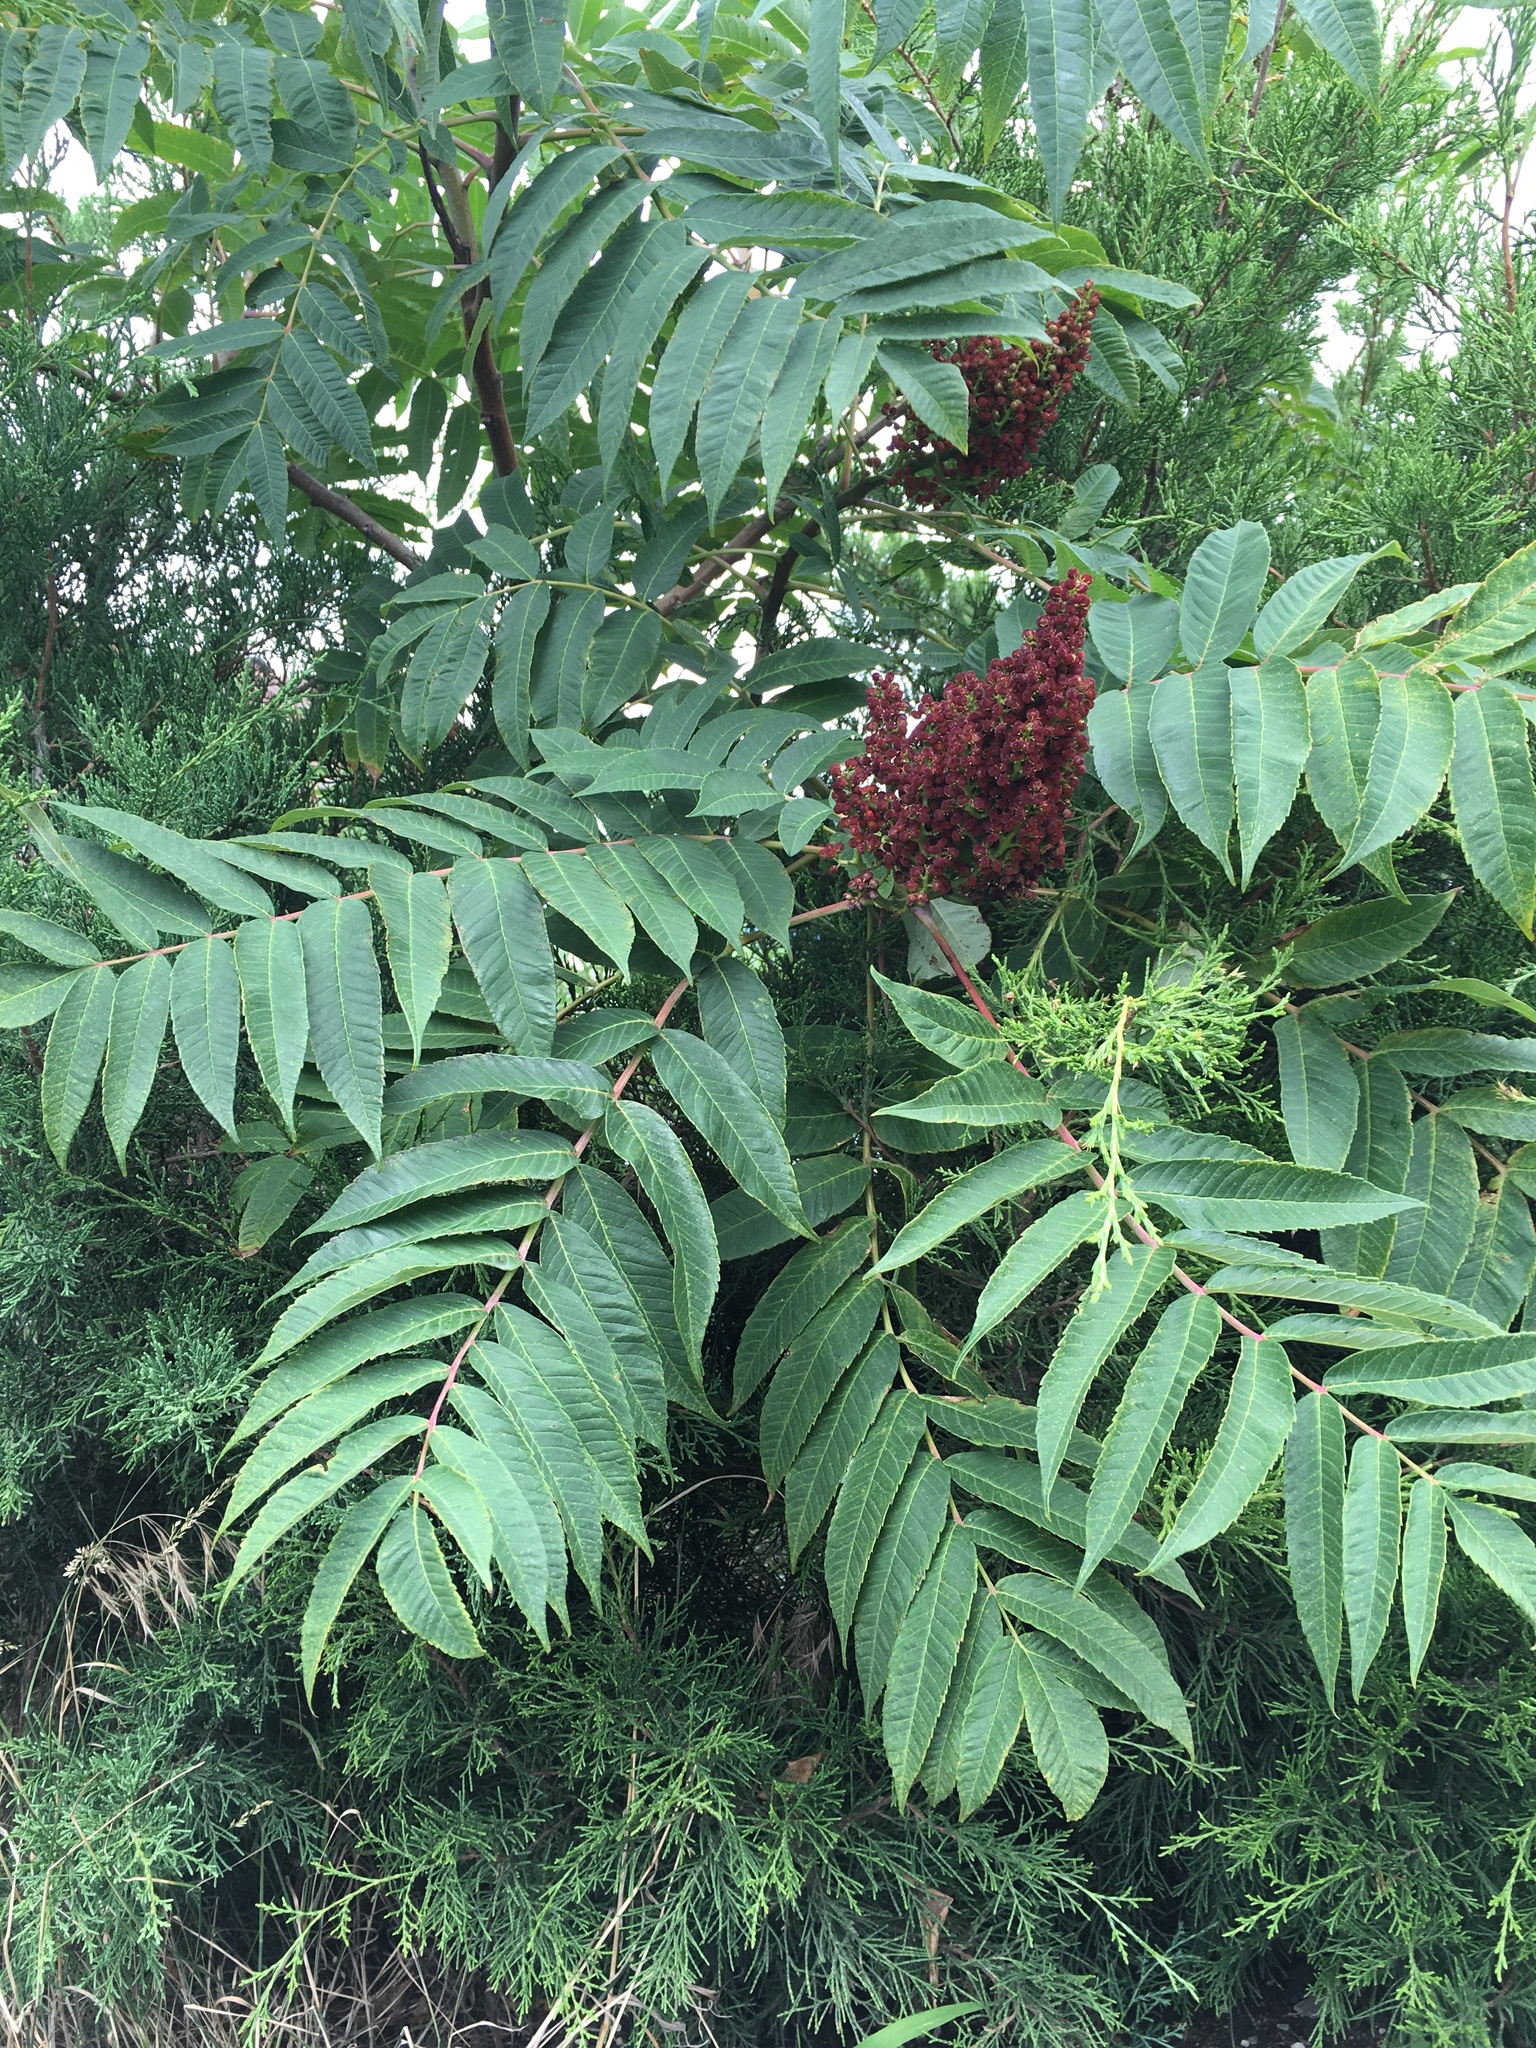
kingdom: Plantae
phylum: Tracheophyta
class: Magnoliopsida
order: Sapindales
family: Anacardiaceae
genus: Rhus
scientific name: Rhus glabra
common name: Scarlet sumac
